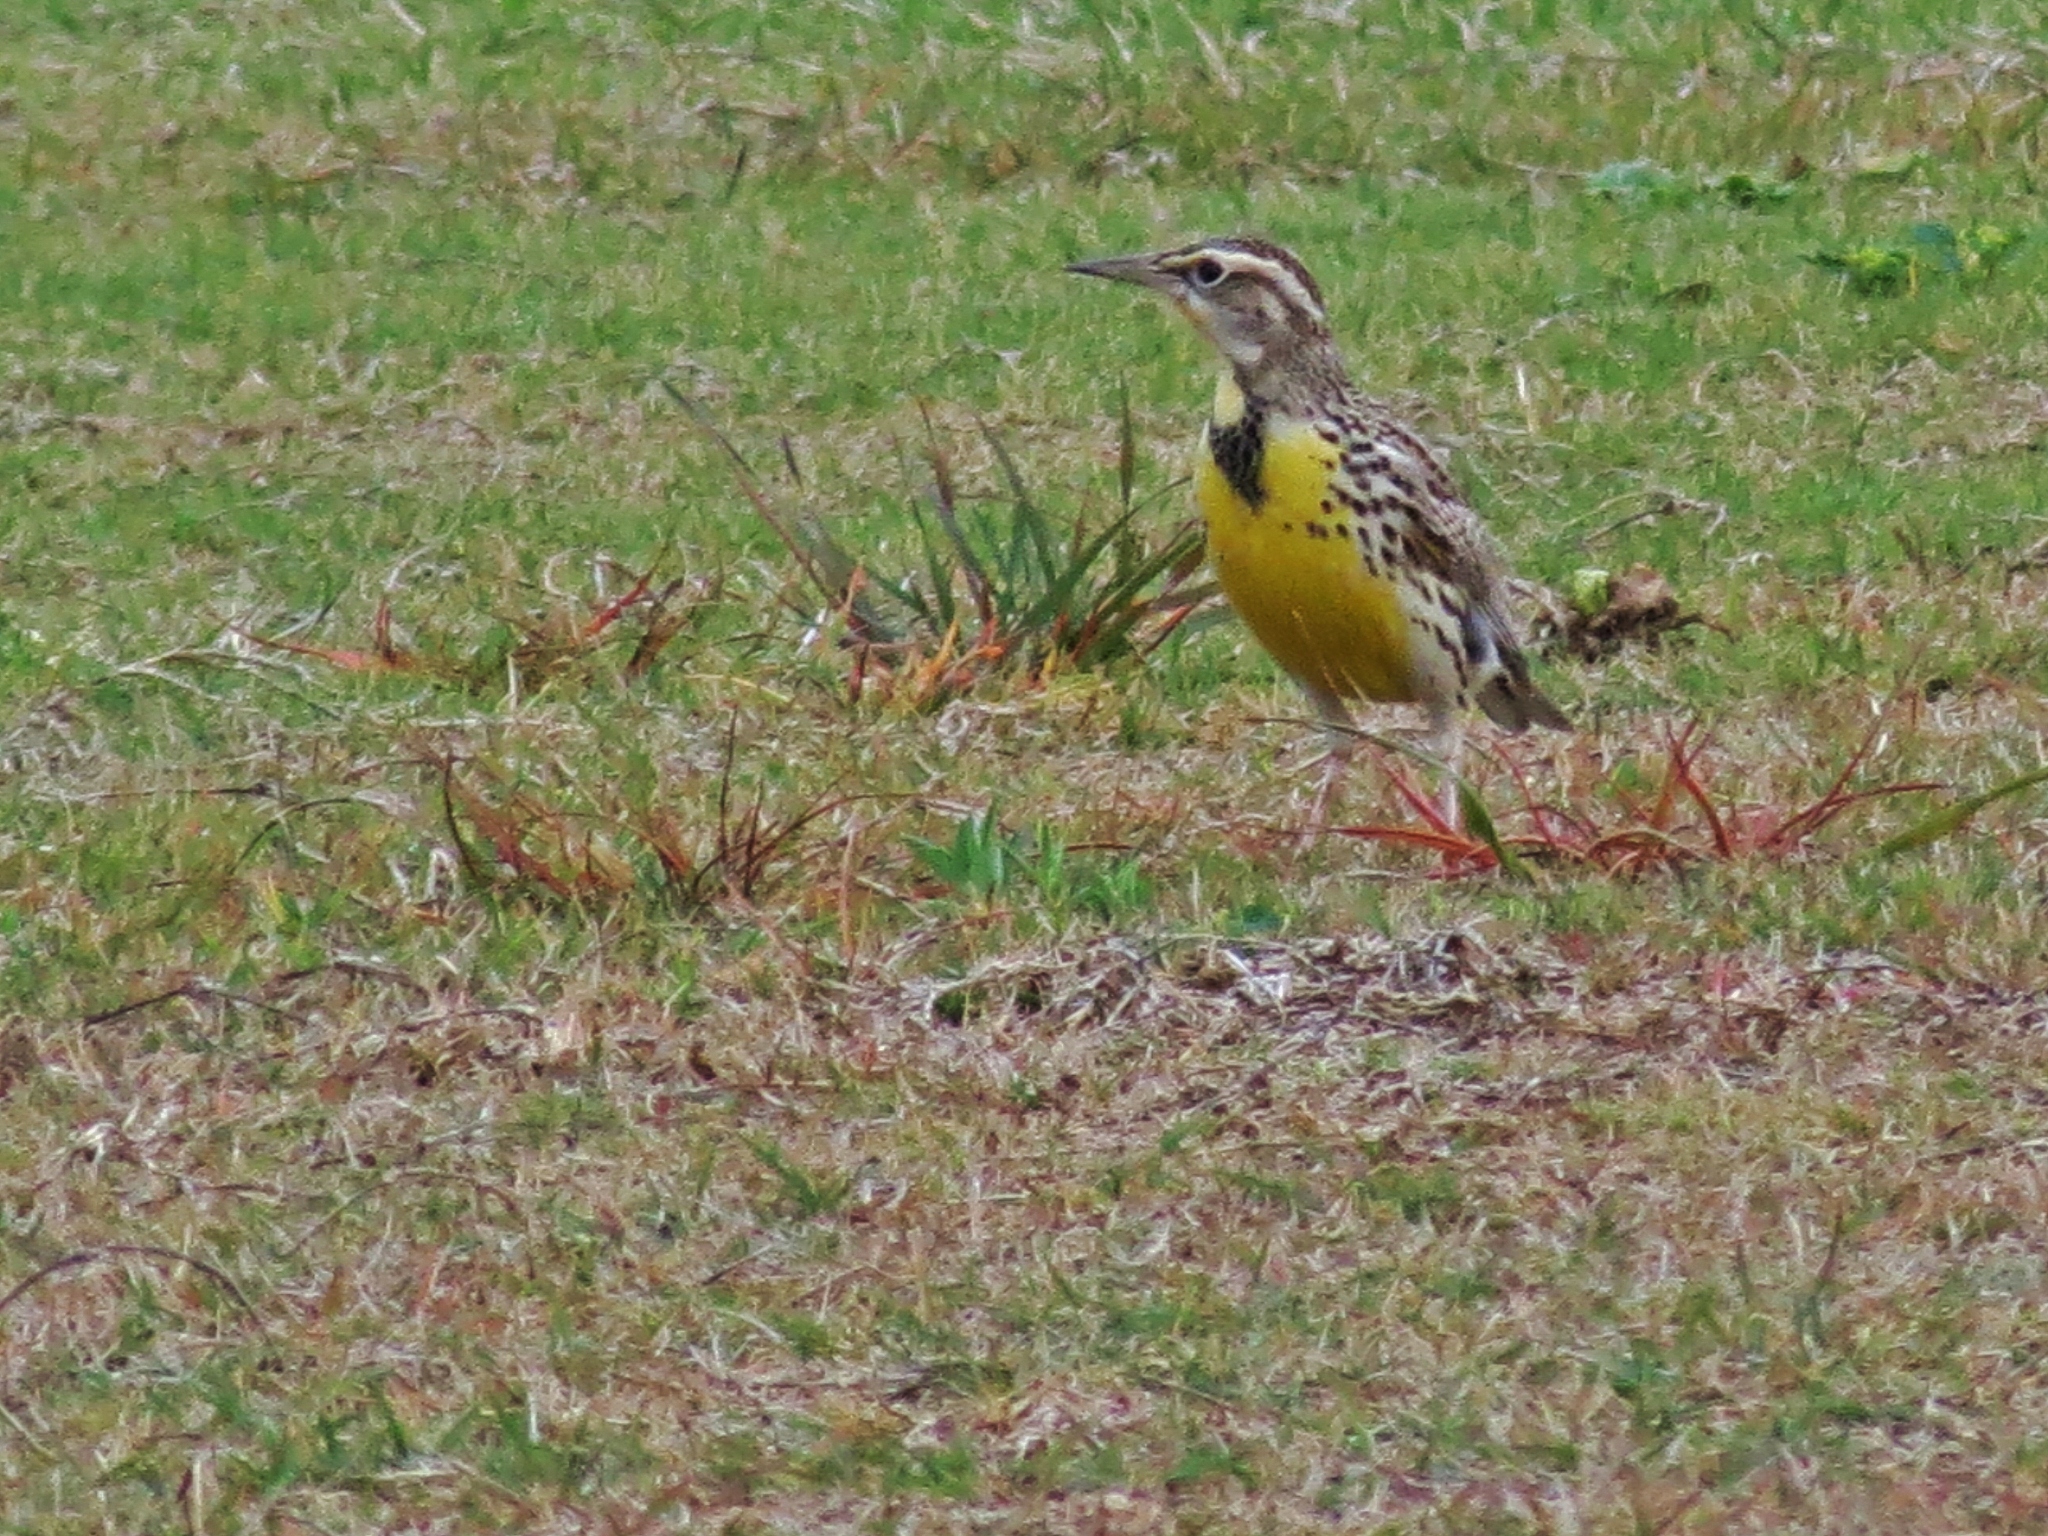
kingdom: Animalia
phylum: Chordata
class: Aves
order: Passeriformes
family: Icteridae
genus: Sturnella
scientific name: Sturnella
